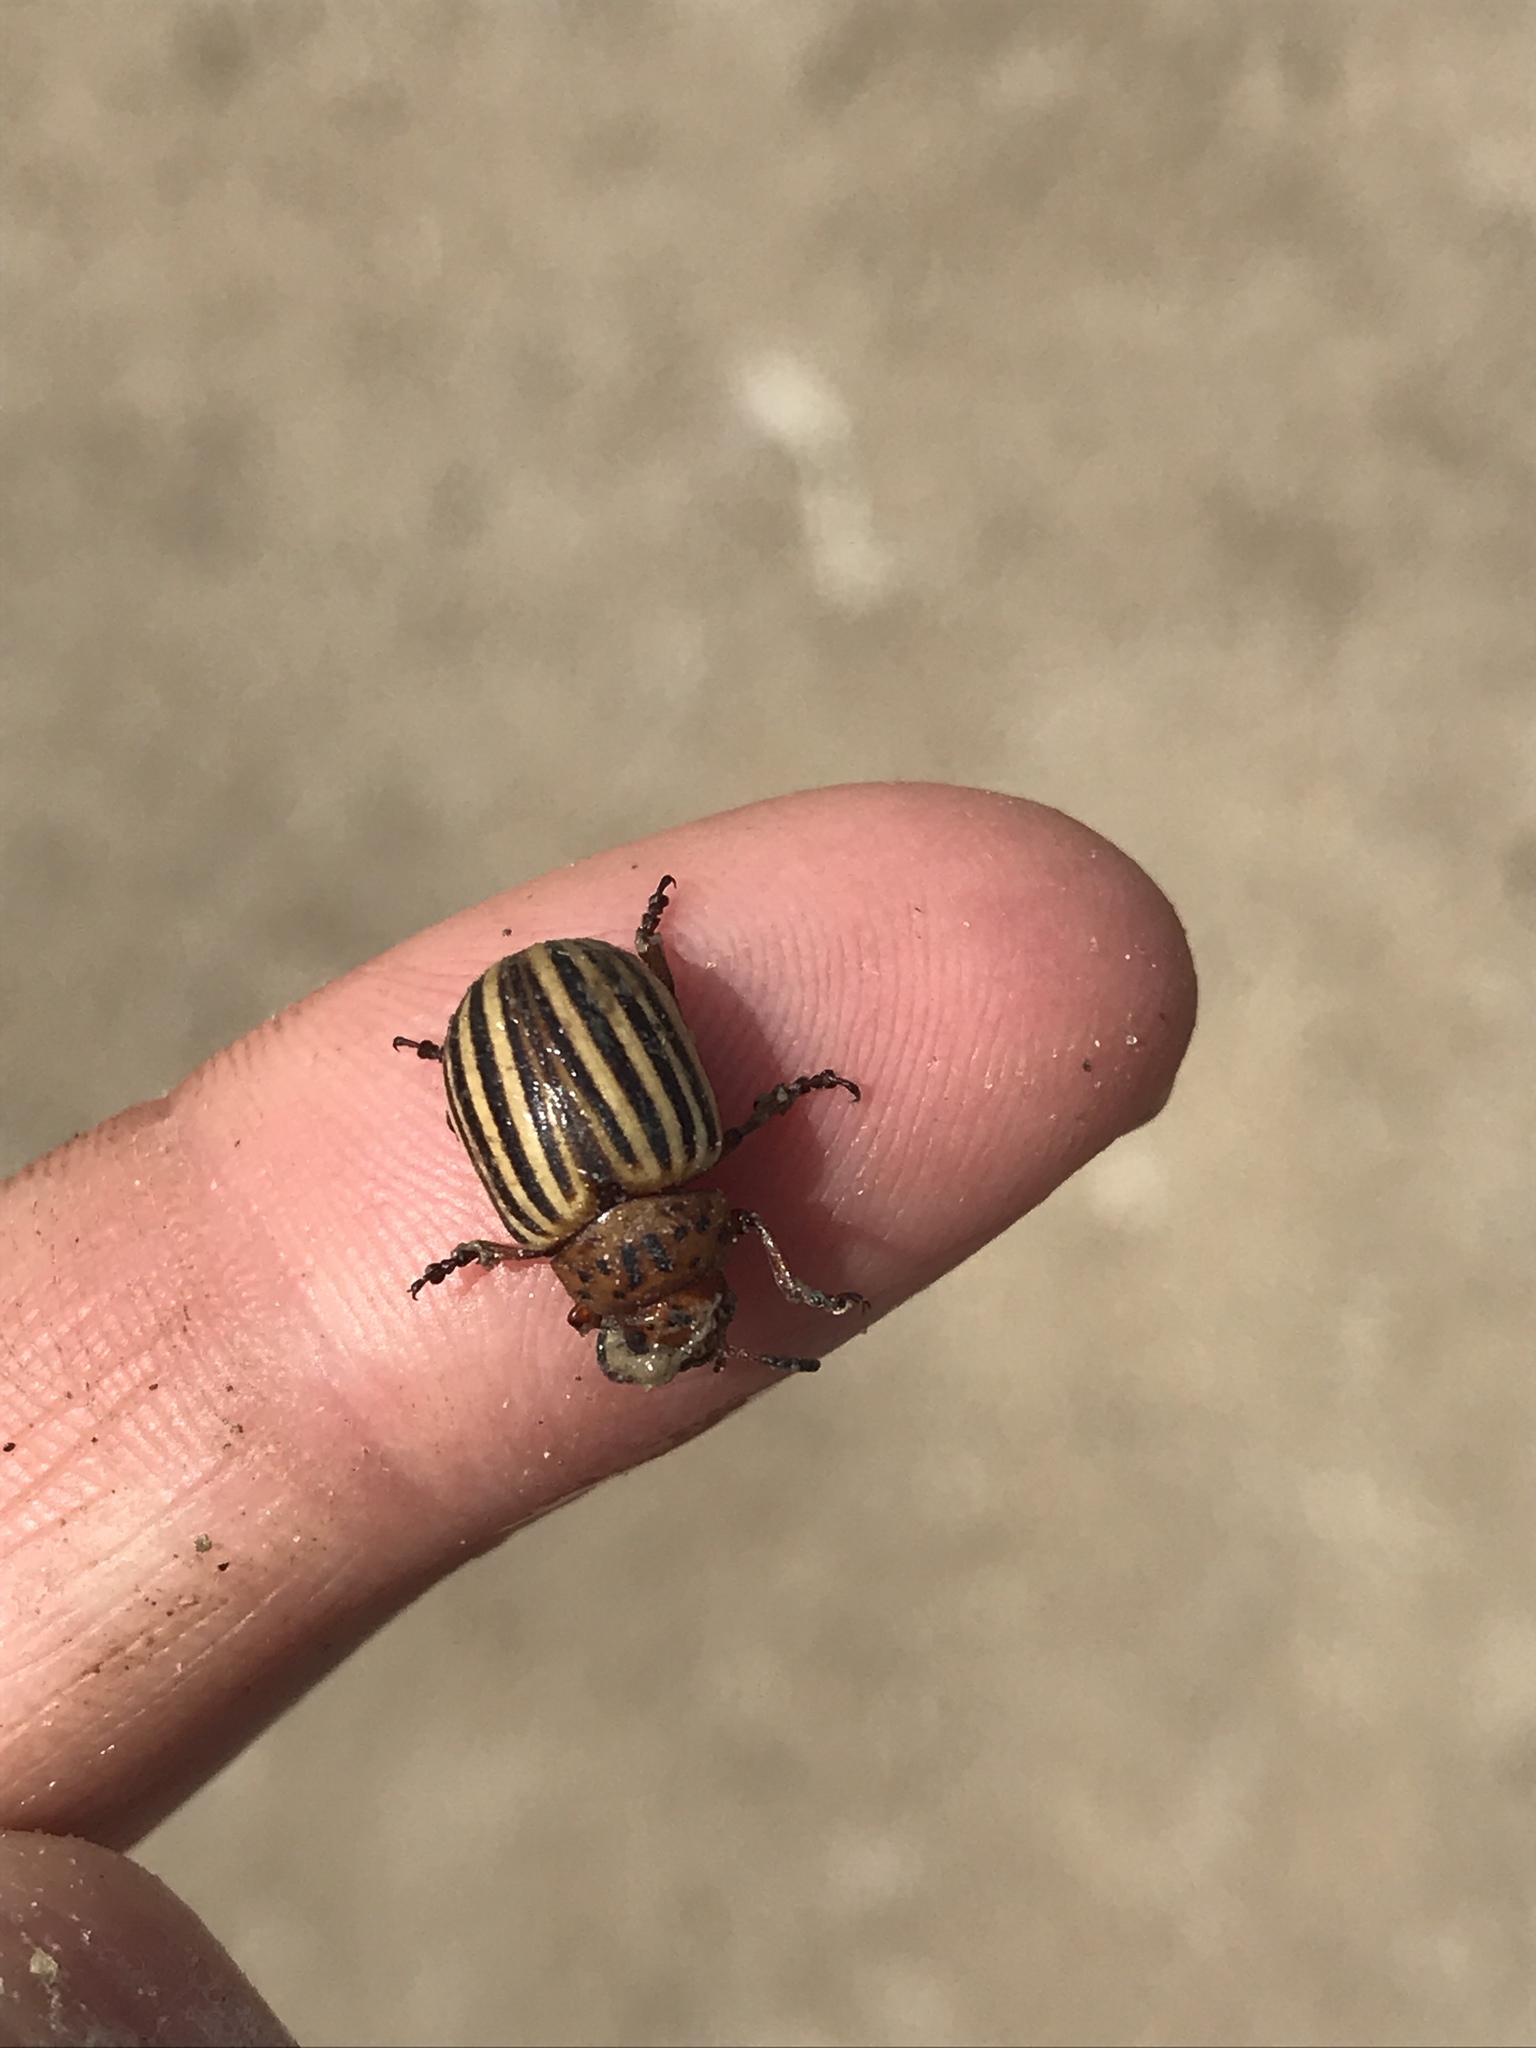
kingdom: Animalia
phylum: Arthropoda
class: Insecta
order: Coleoptera
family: Chrysomelidae
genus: Leptinotarsa
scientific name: Leptinotarsa decemlineata
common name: Colorado potato beetle
